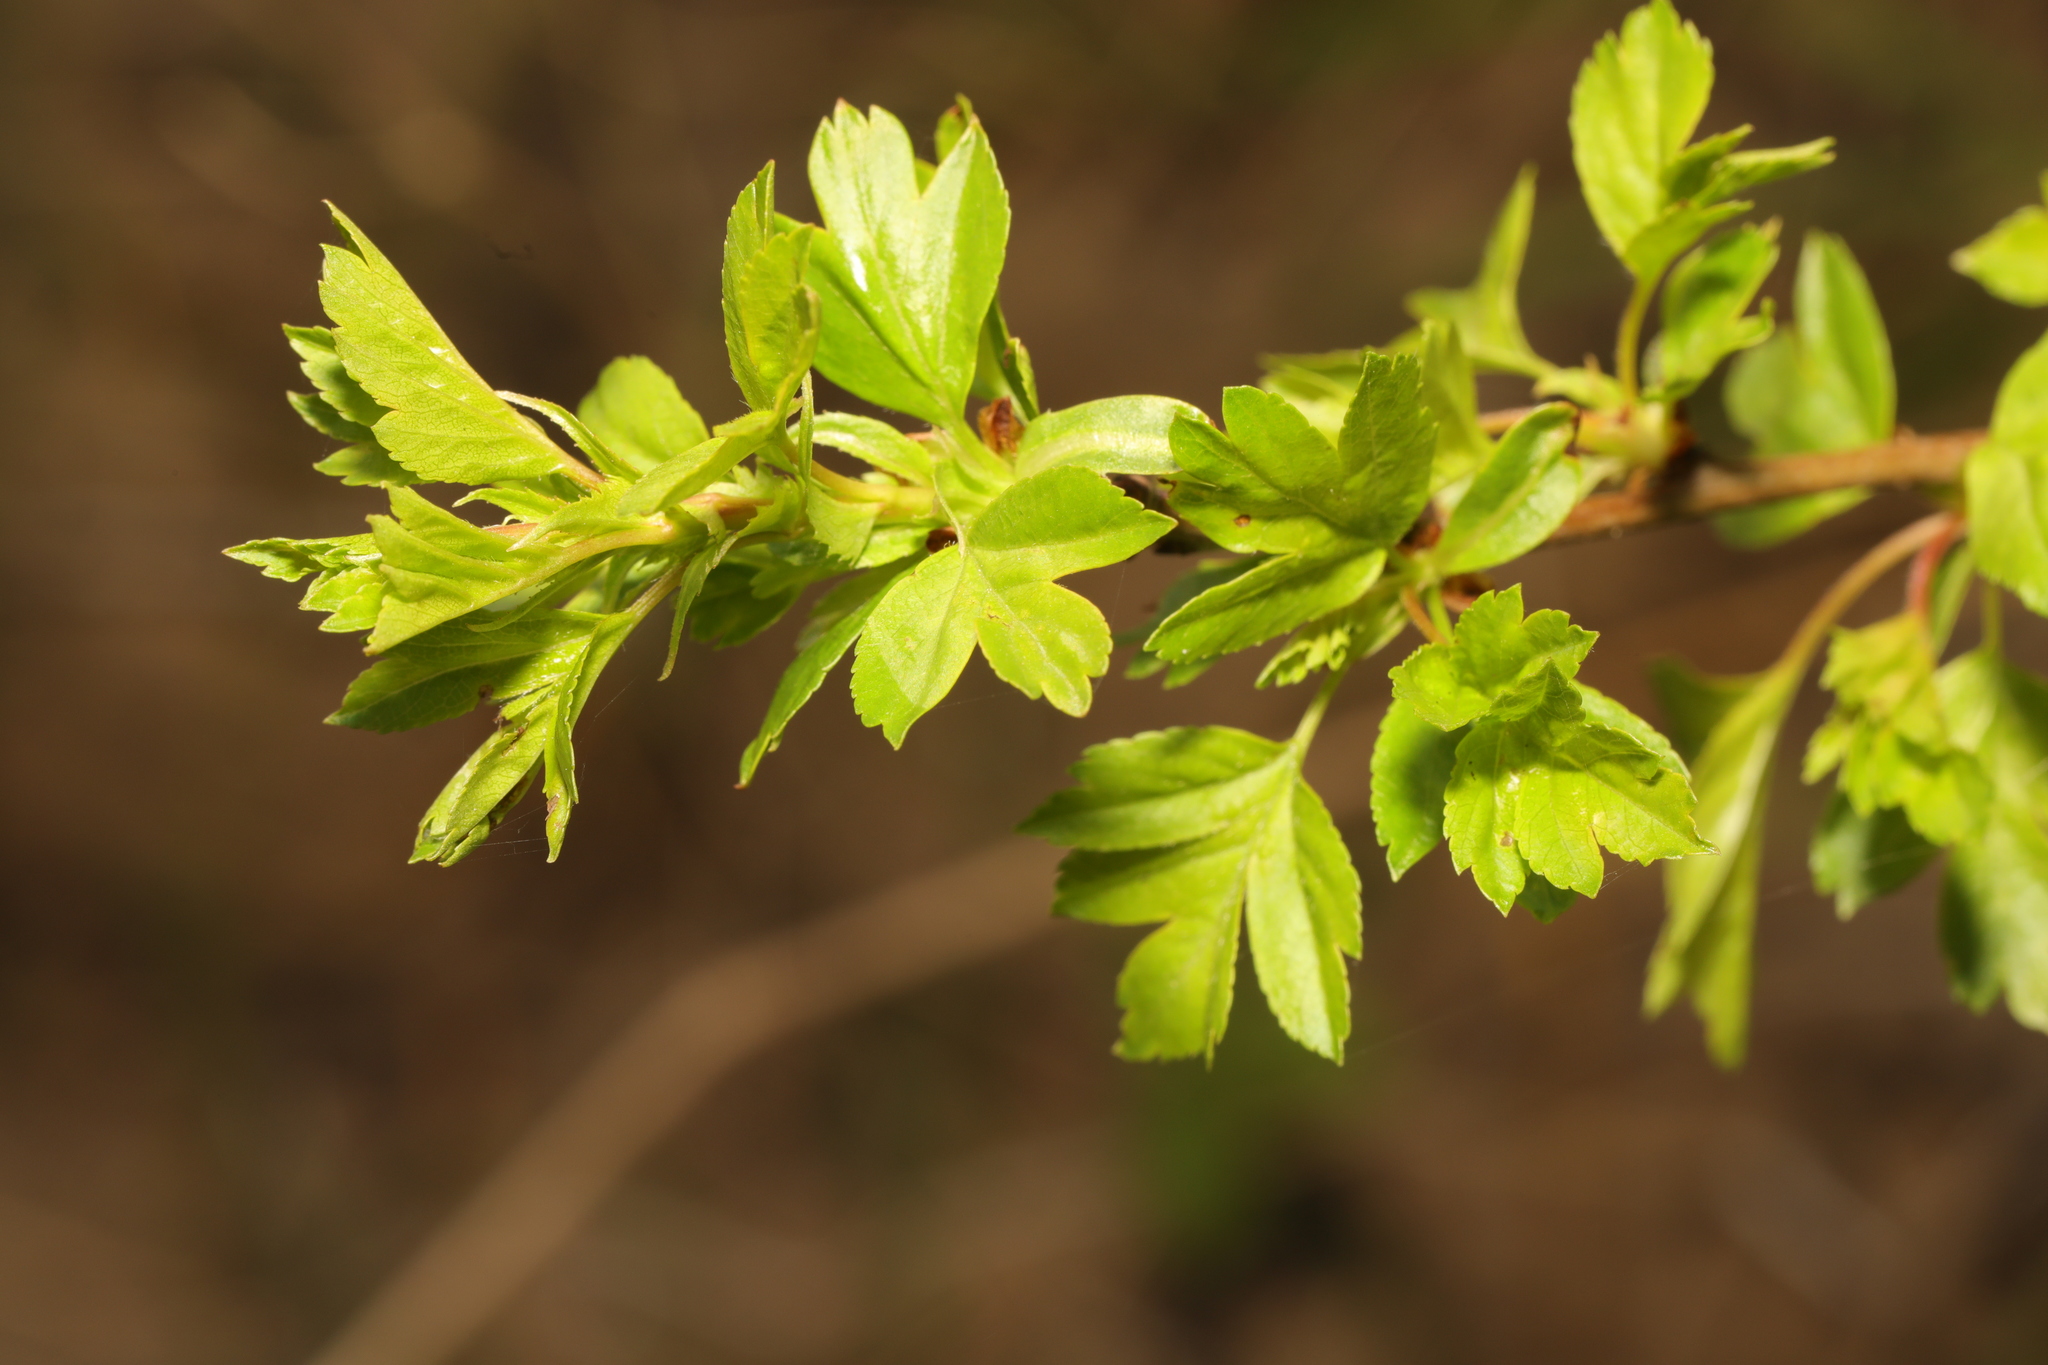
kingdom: Plantae
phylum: Tracheophyta
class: Magnoliopsida
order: Rosales
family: Rosaceae
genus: Crataegus
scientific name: Crataegus monogyna
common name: Hawthorn
